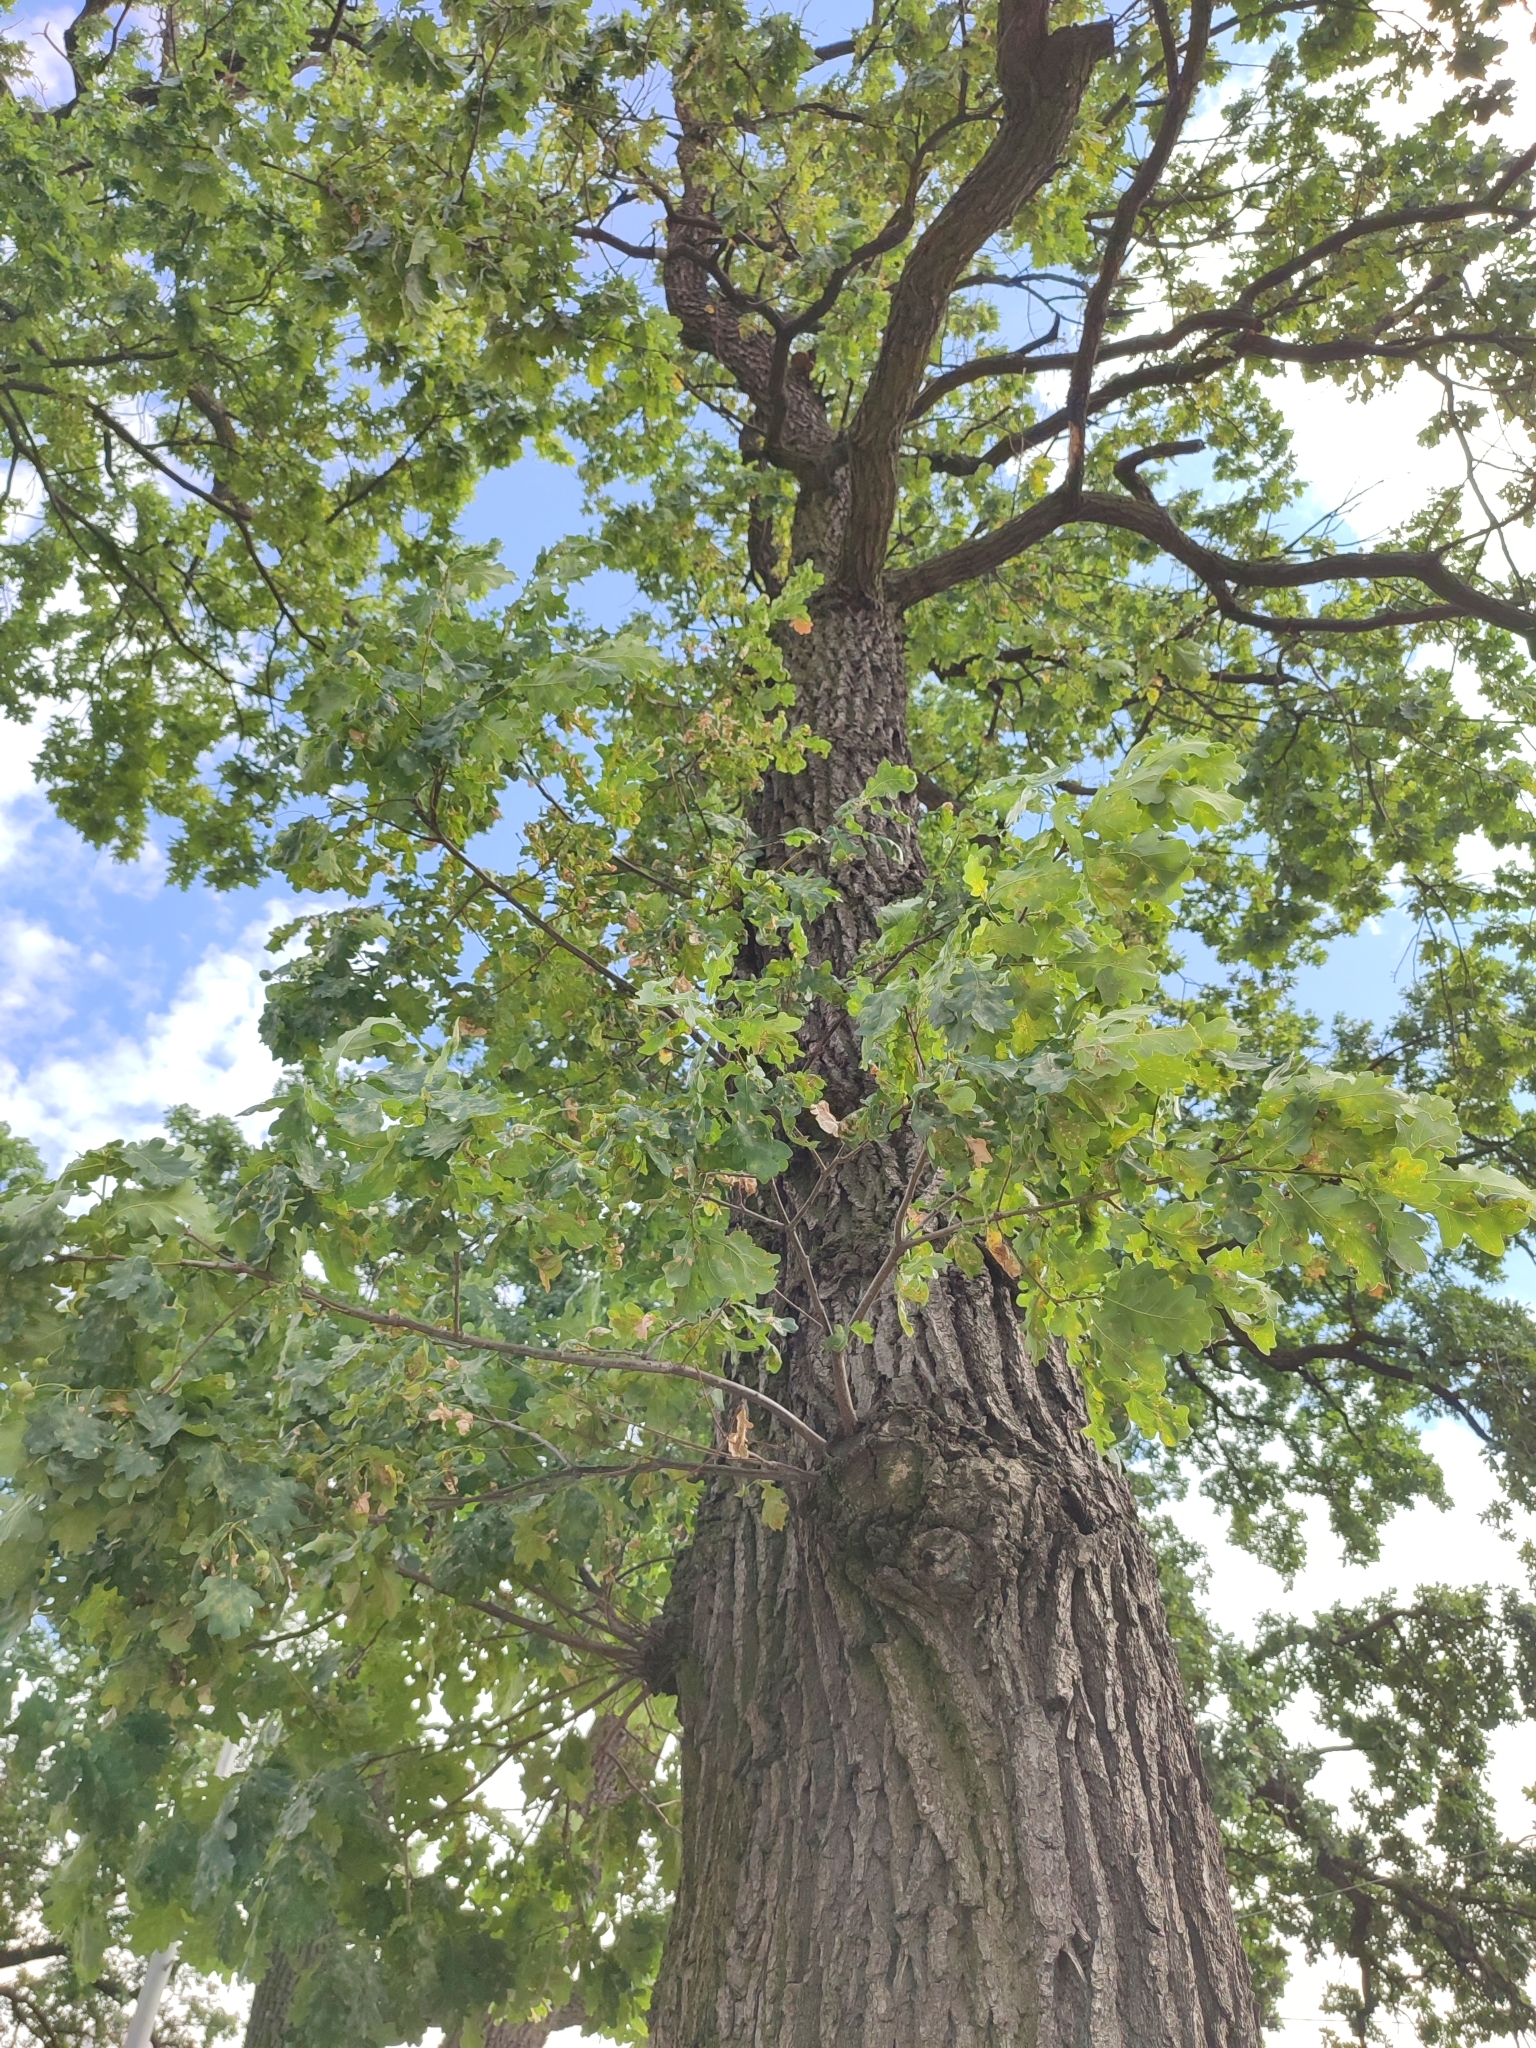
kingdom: Plantae
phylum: Tracheophyta
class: Magnoliopsida
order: Fagales
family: Fagaceae
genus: Quercus
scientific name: Quercus robur
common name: Pedunculate oak
